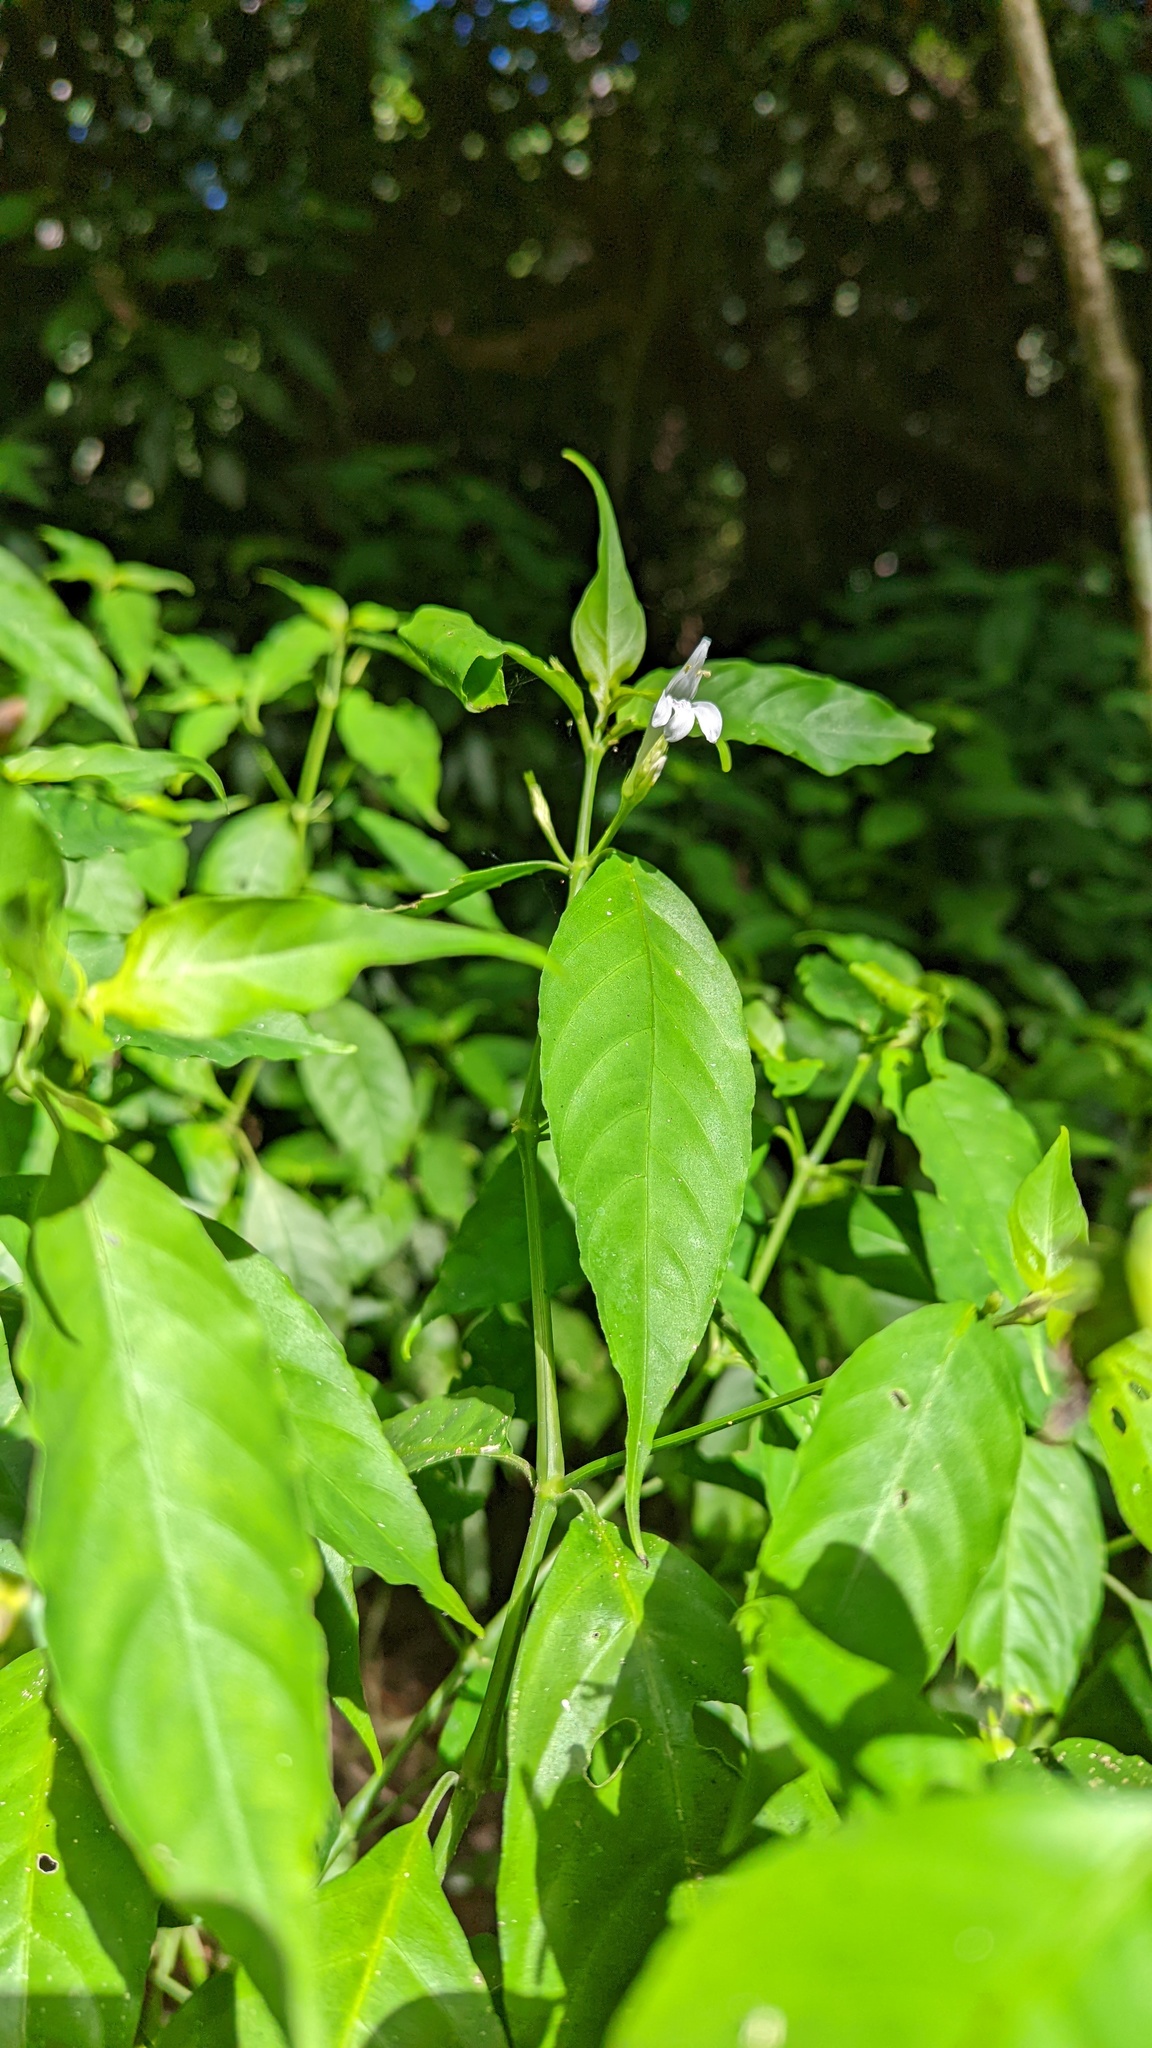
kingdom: Plantae
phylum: Tracheophyta
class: Magnoliopsida
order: Lamiales
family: Acanthaceae
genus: Justicia
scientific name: Justicia urophylla
